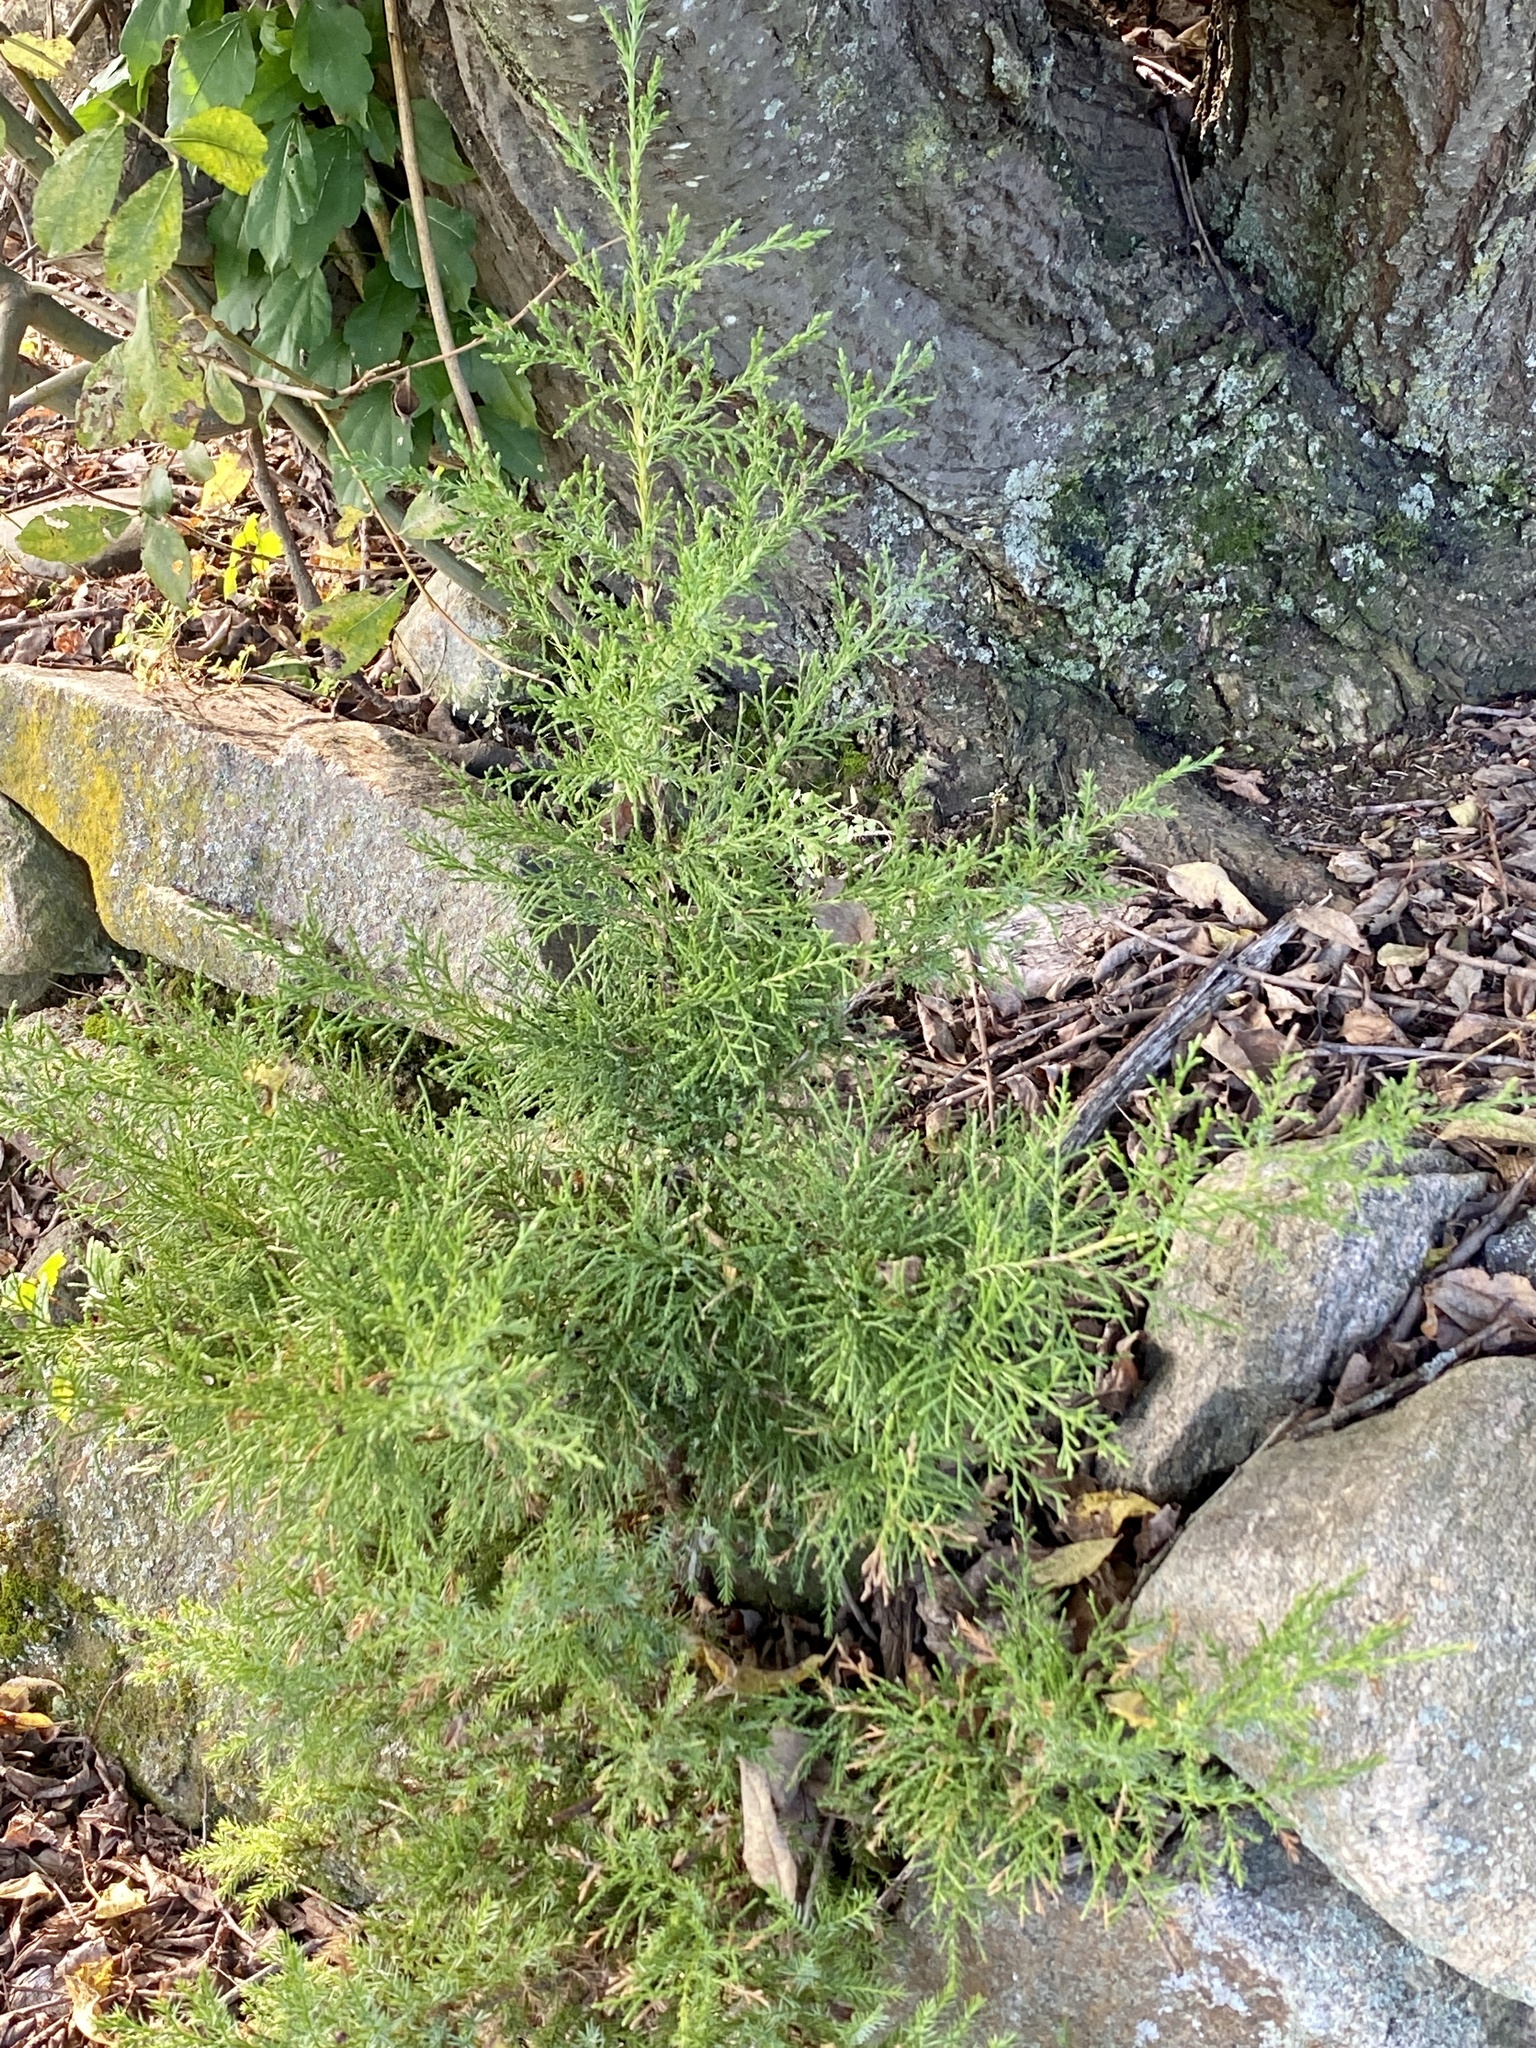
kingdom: Plantae
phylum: Tracheophyta
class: Pinopsida
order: Pinales
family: Cupressaceae
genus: Juniperus
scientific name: Juniperus virginiana
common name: Red juniper
